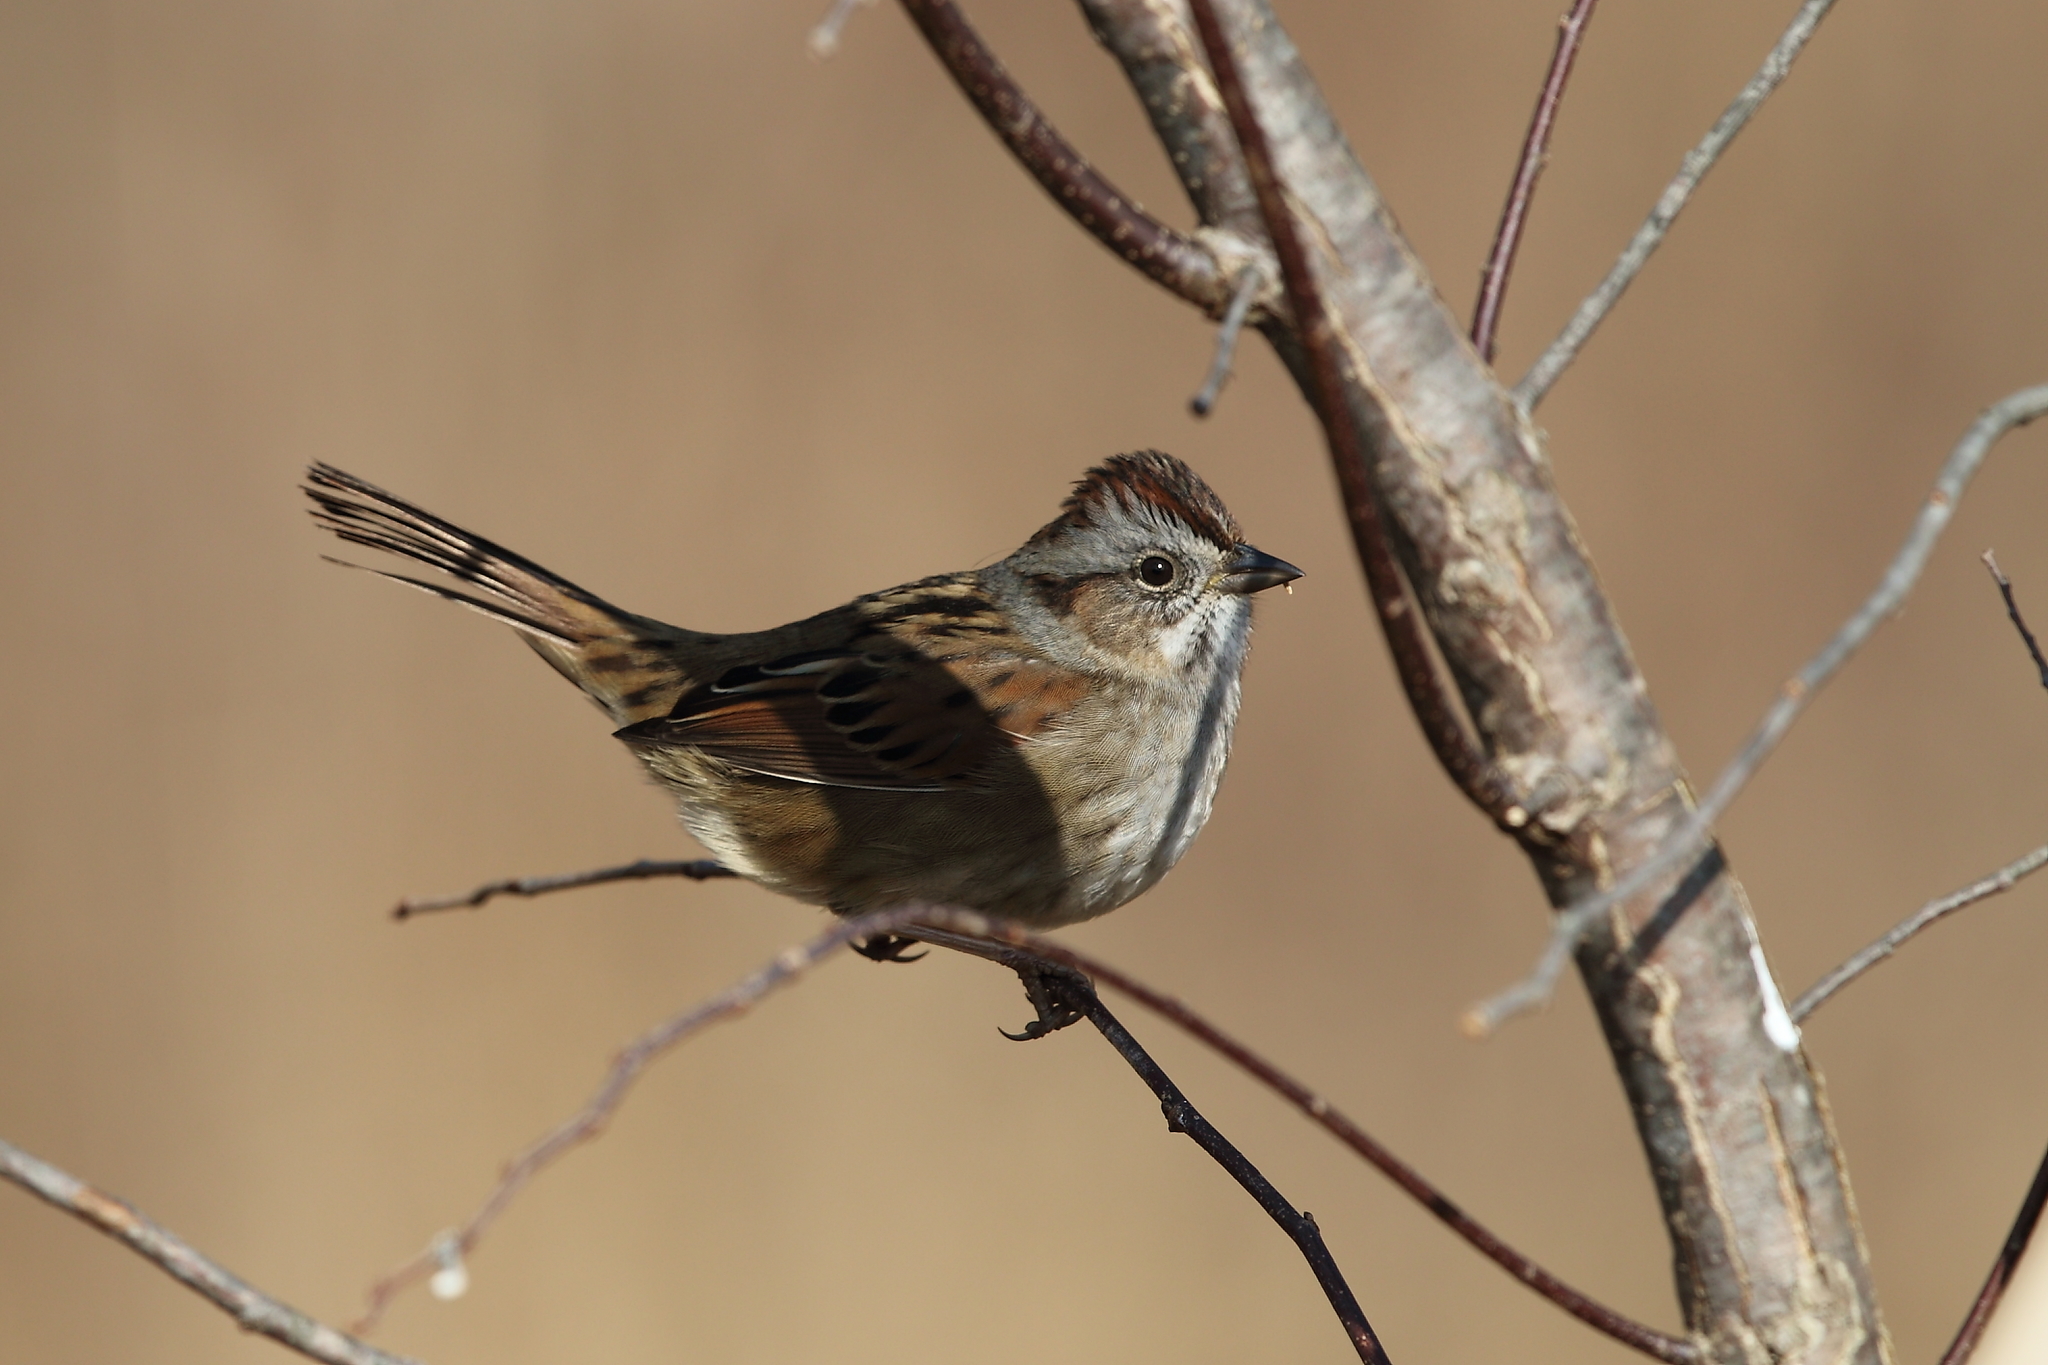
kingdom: Animalia
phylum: Chordata
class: Aves
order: Passeriformes
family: Passerellidae
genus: Melospiza
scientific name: Melospiza georgiana
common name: Swamp sparrow
